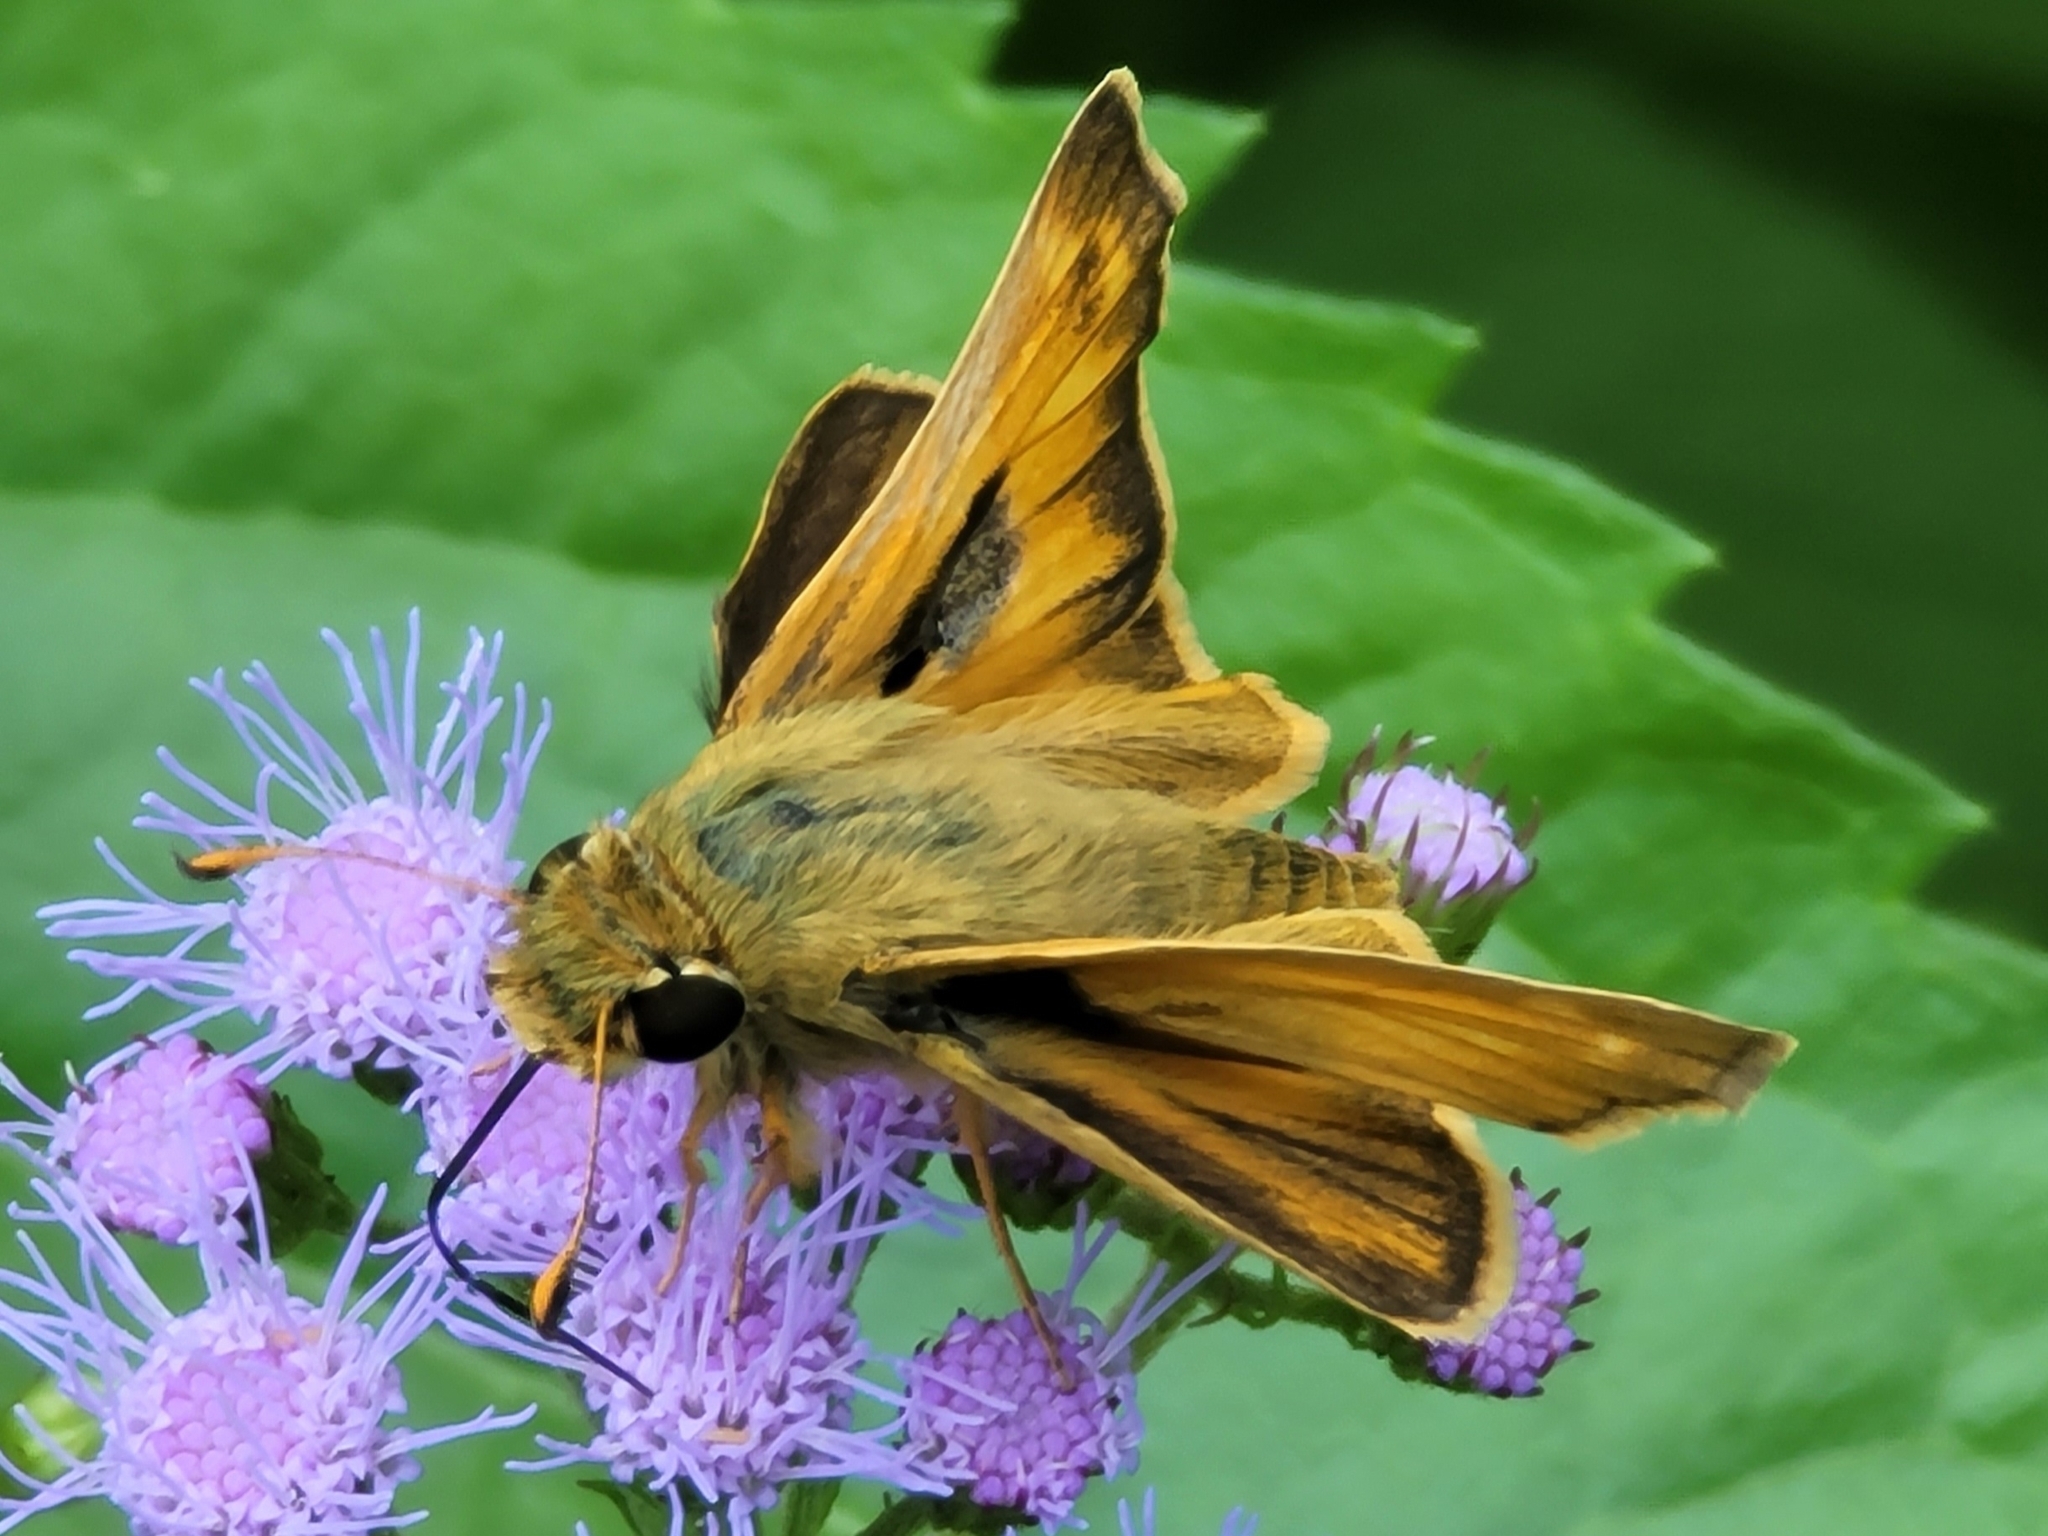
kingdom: Animalia
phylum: Arthropoda
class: Insecta
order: Lepidoptera
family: Hesperiidae
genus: Atalopedes
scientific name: Atalopedes
